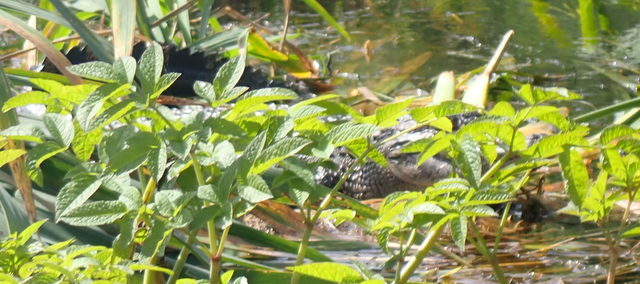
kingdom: Animalia
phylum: Chordata
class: Crocodylia
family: Alligatoridae
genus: Alligator
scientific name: Alligator mississippiensis
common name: American alligator
